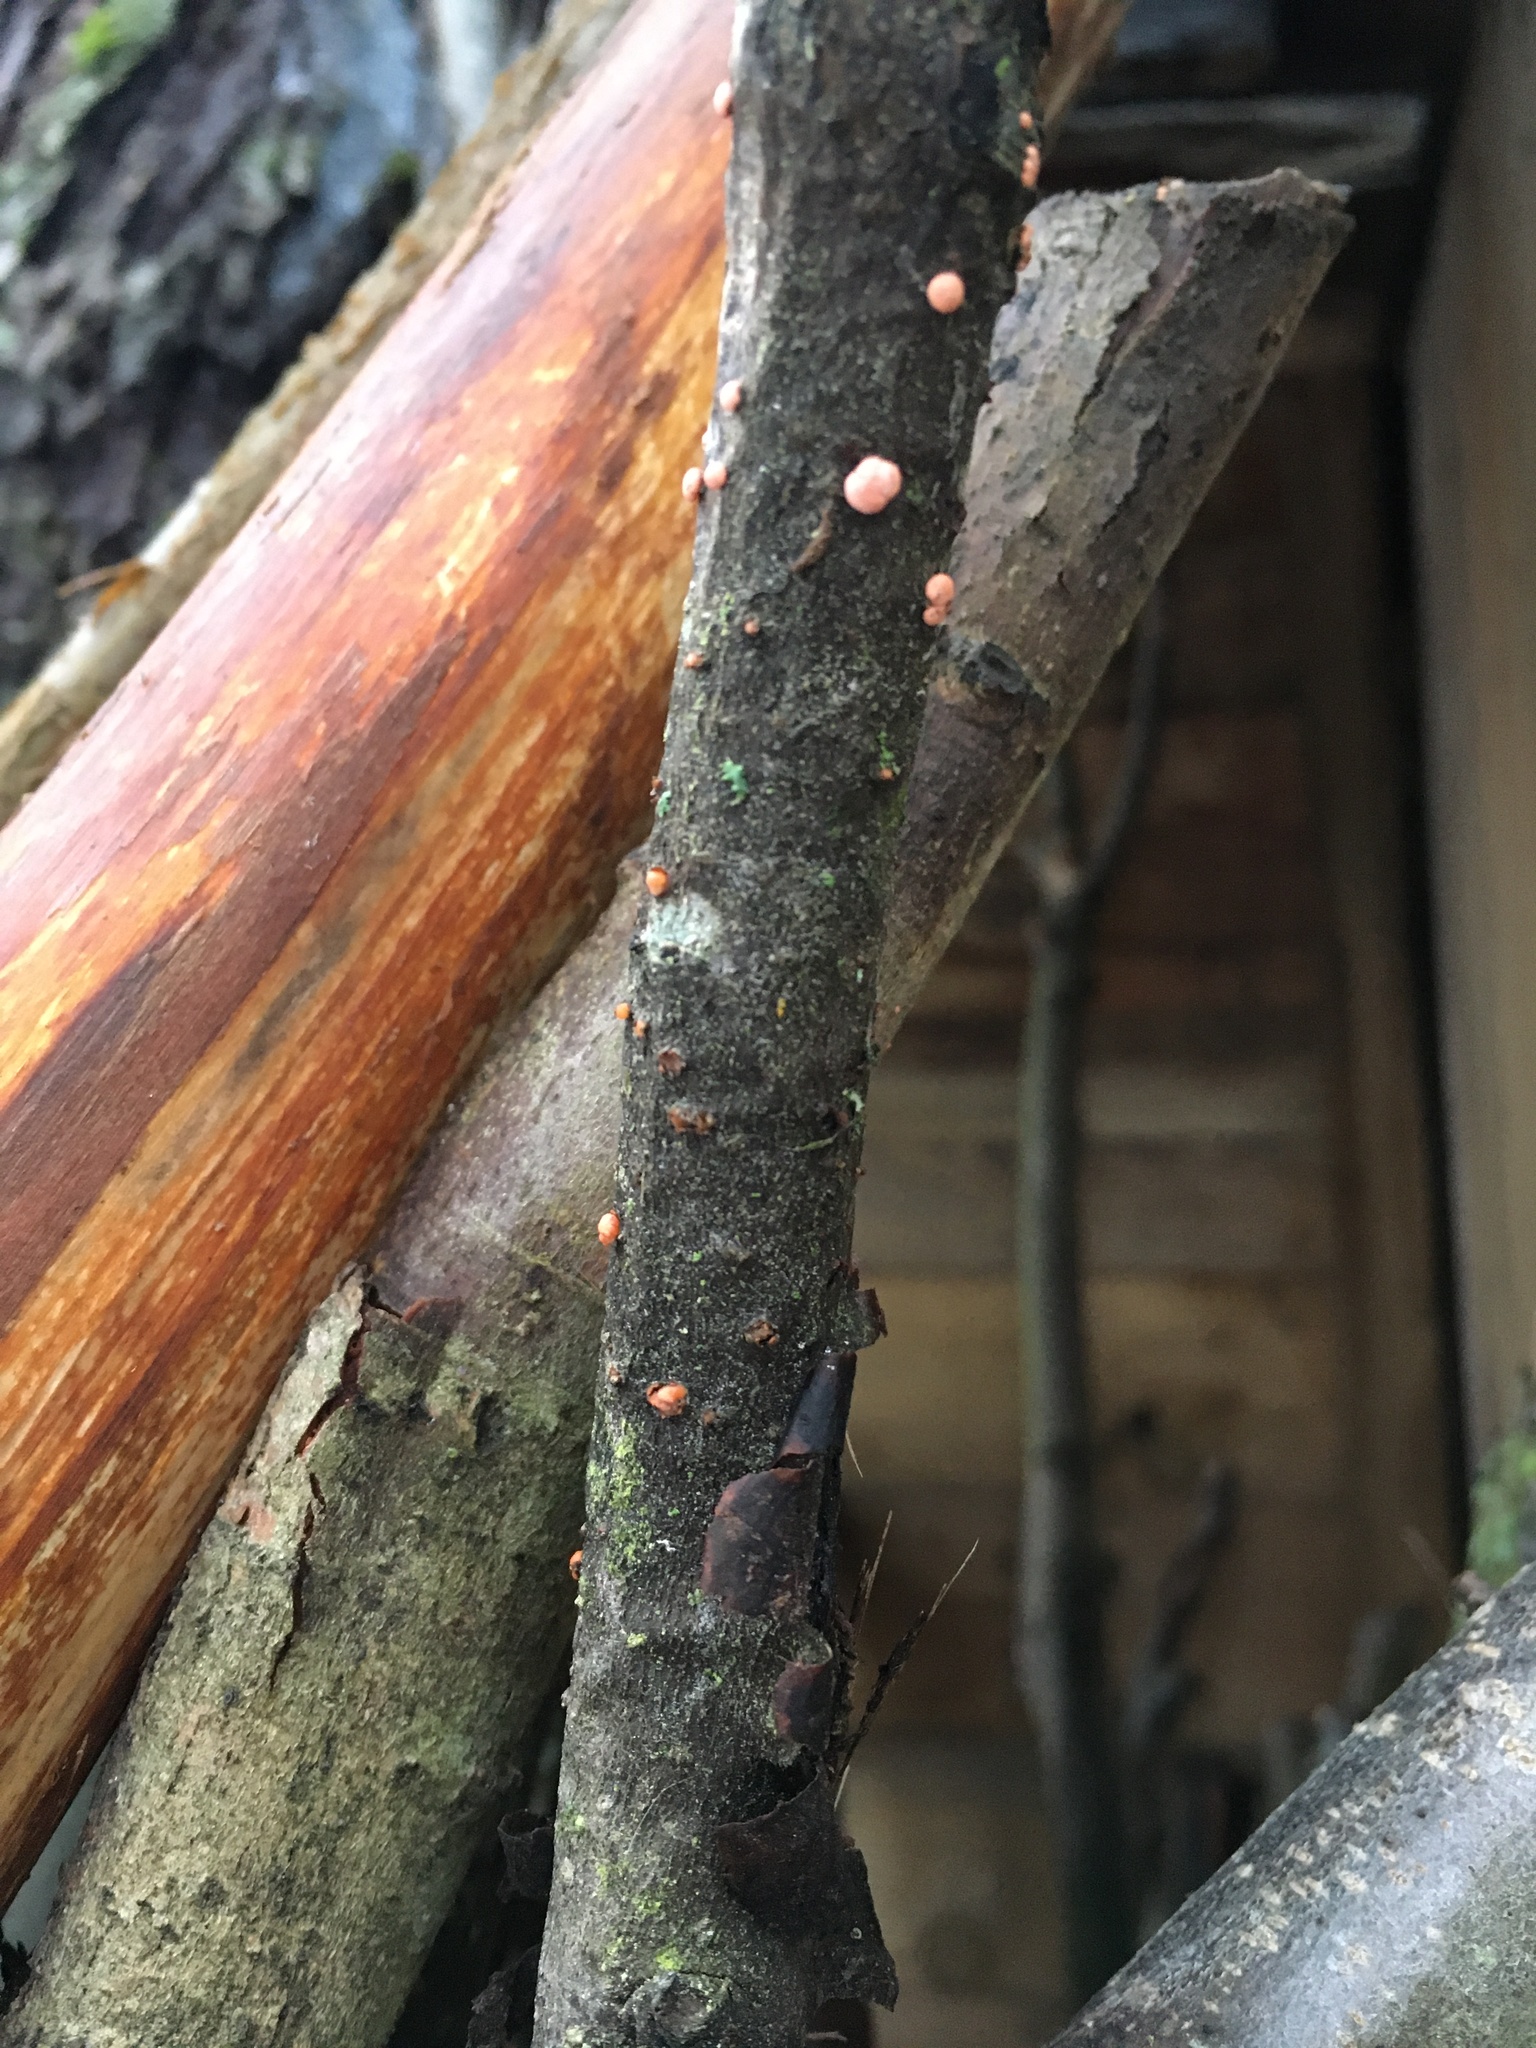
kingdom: Fungi
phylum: Ascomycota
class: Sordariomycetes
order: Hypocreales
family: Nectriaceae
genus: Nectria
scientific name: Nectria cinnabarina
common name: Coral spot
